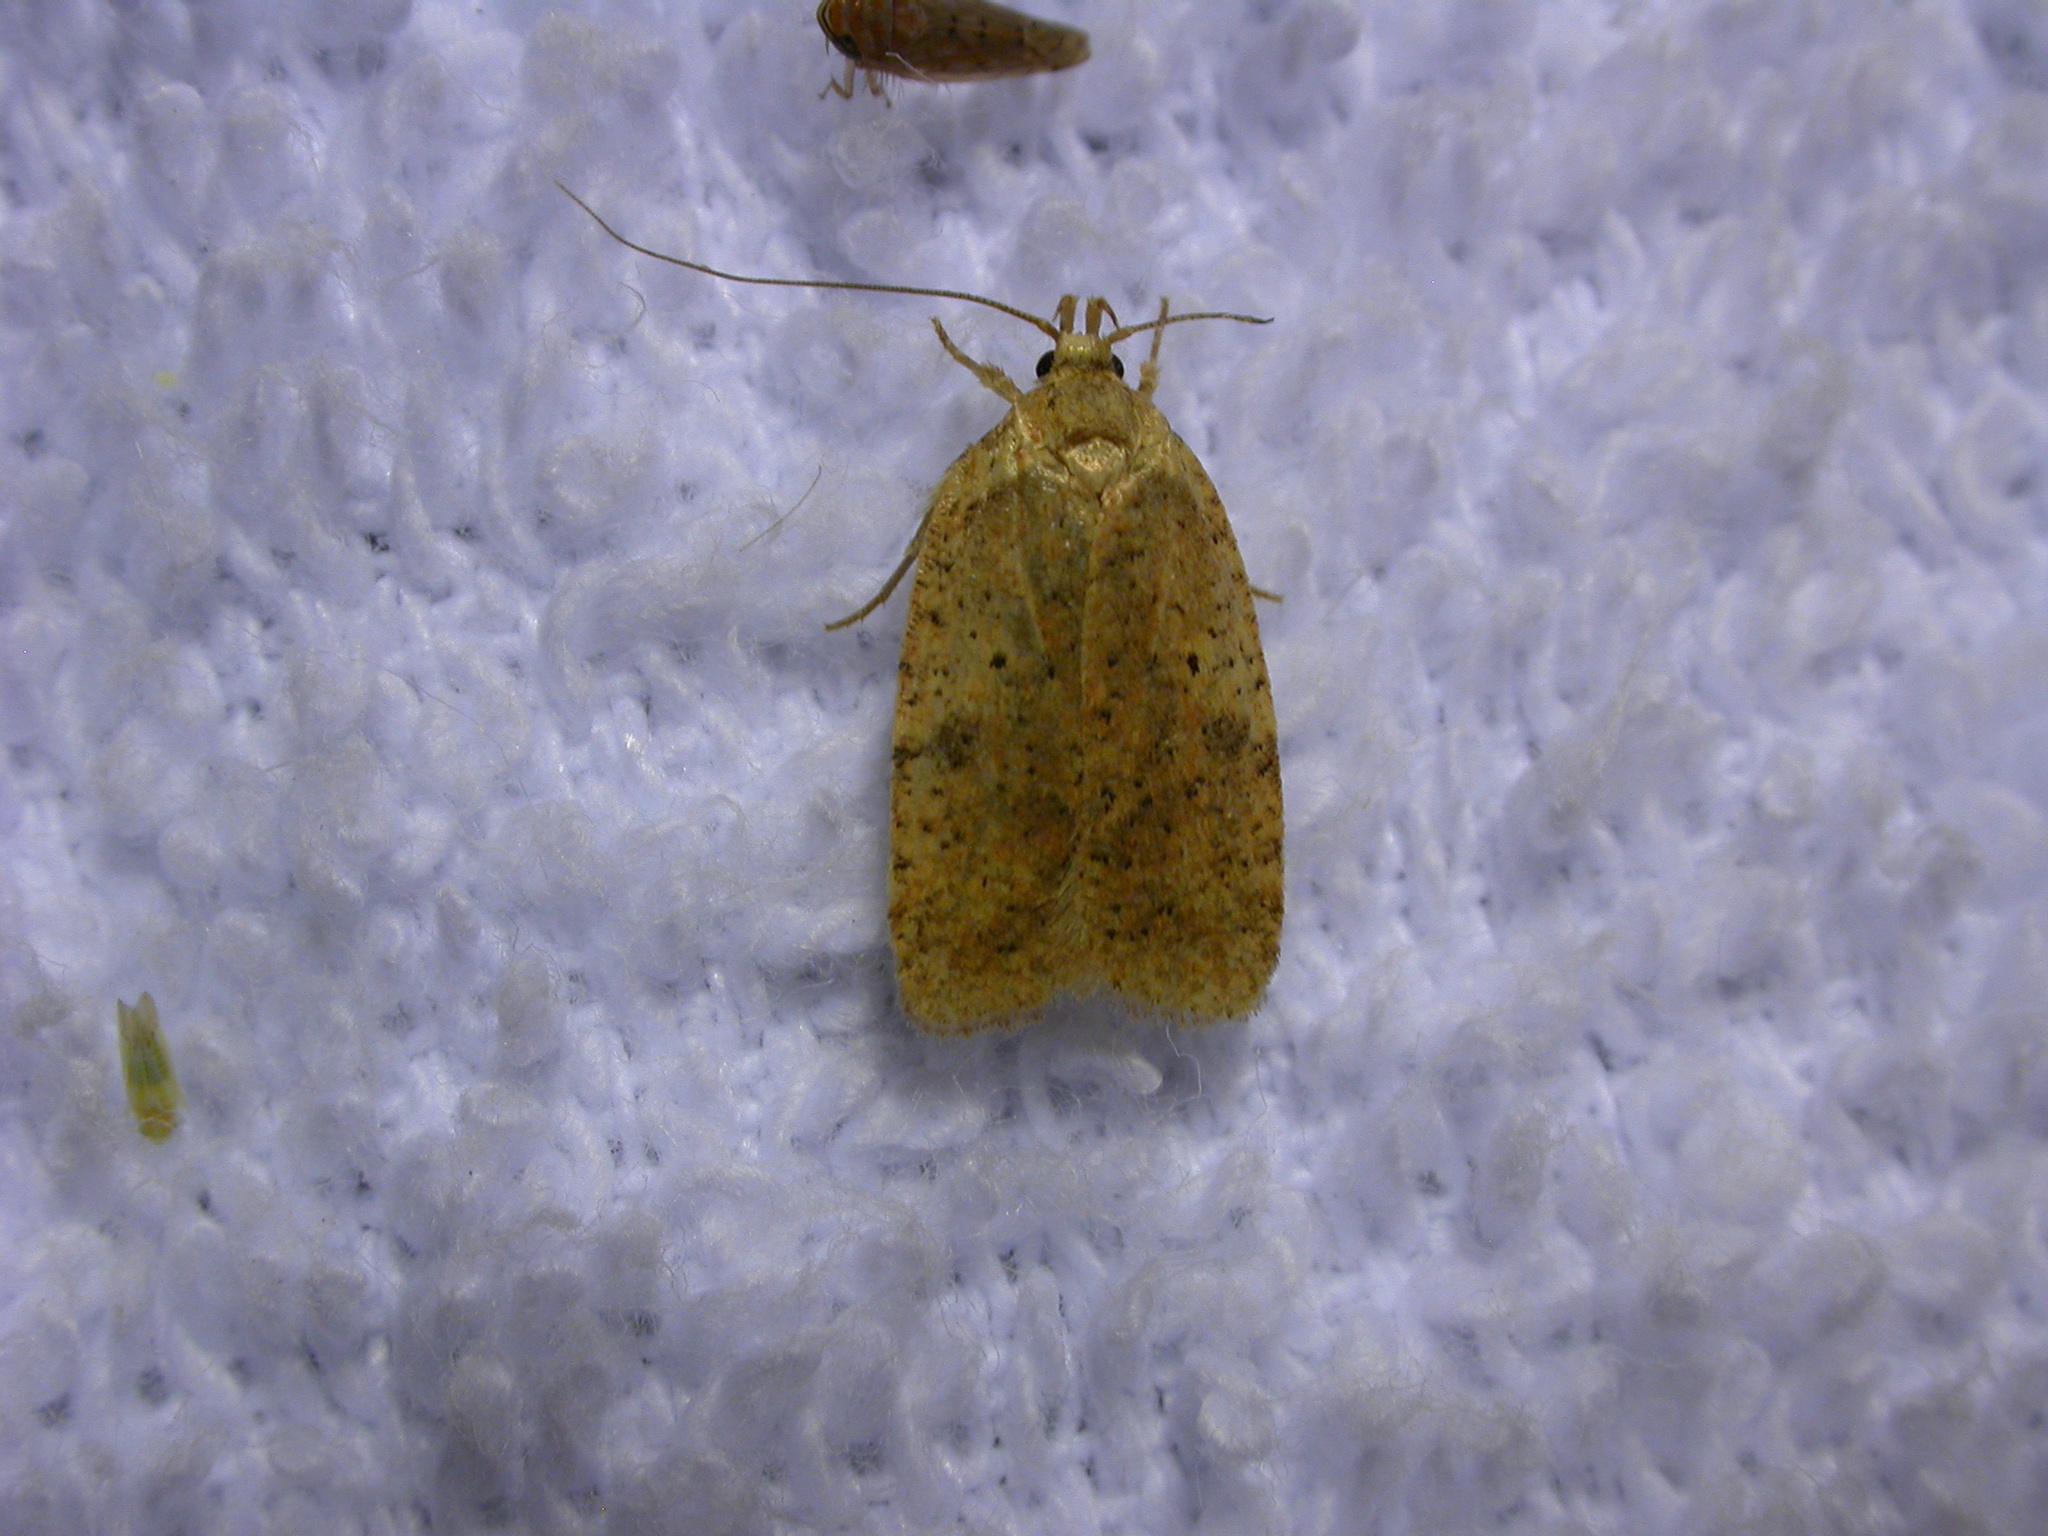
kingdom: Animalia
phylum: Arthropoda
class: Insecta
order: Lepidoptera
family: Depressariidae
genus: Agonopterix
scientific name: Agonopterix thelmae
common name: Thelma's agonopterix moth
